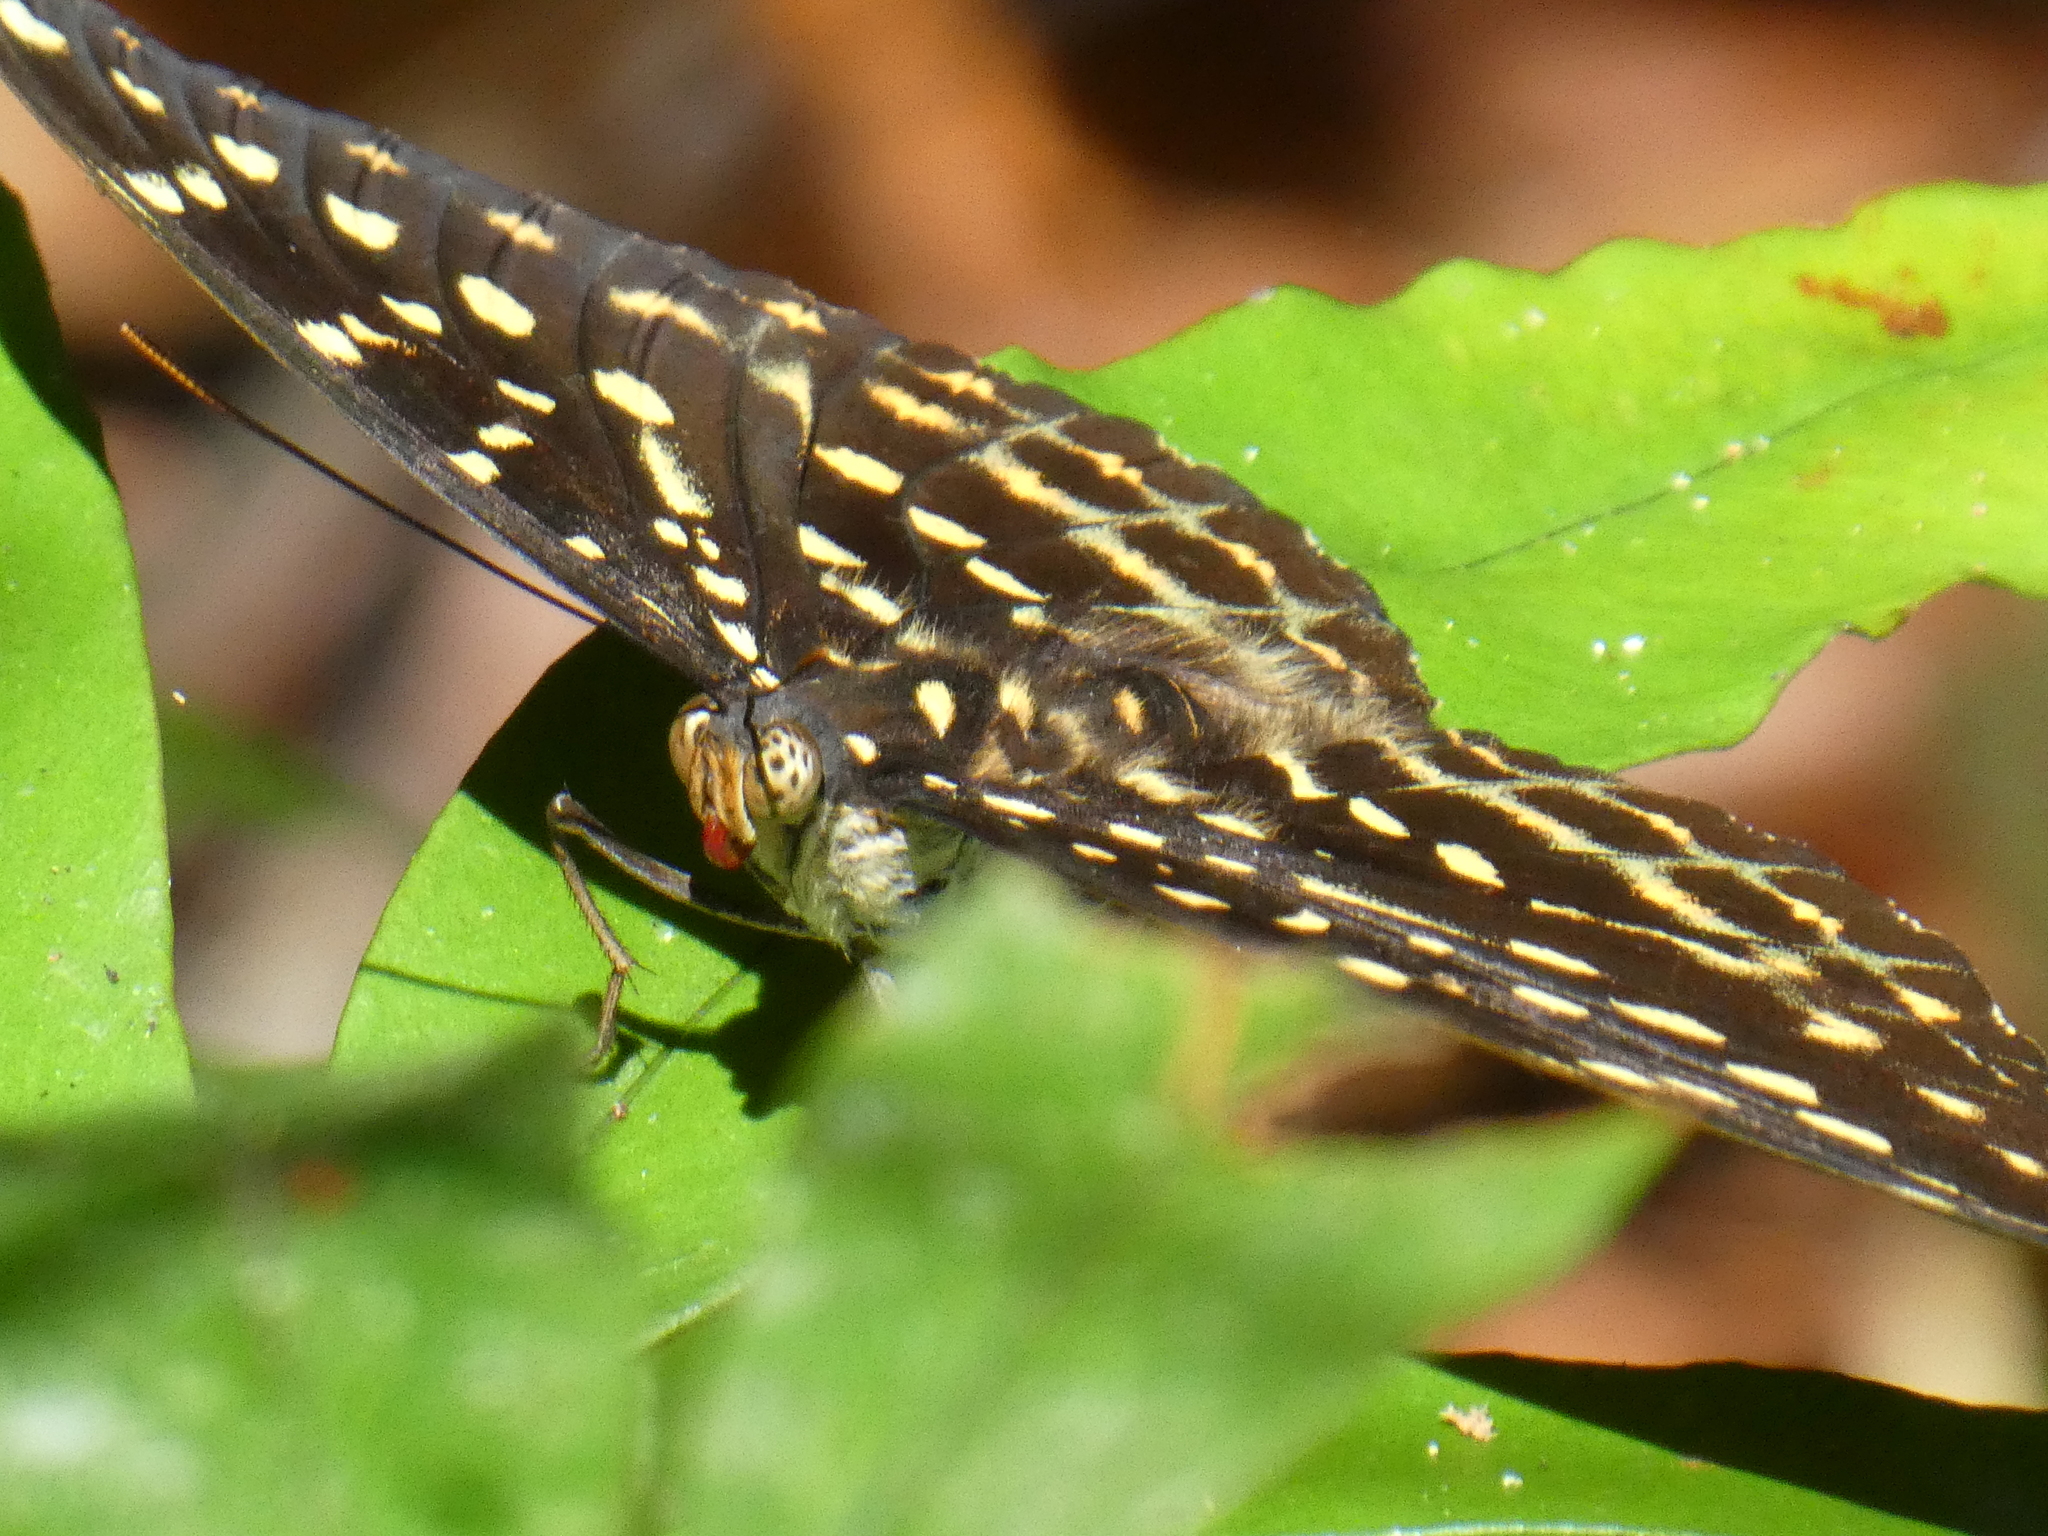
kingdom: Animalia
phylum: Arthropoda
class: Insecta
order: Lepidoptera
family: Nymphalidae
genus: Lexias
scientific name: Lexias dirtea
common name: Black-tipped archduke
